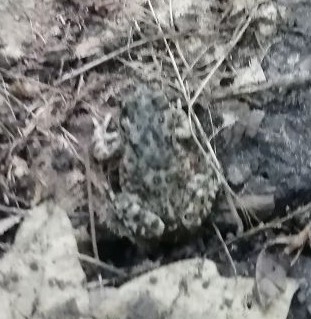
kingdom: Animalia
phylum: Chordata
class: Amphibia
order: Anura
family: Bufonidae
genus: Bufotes
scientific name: Bufotes viridis
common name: European green toad
